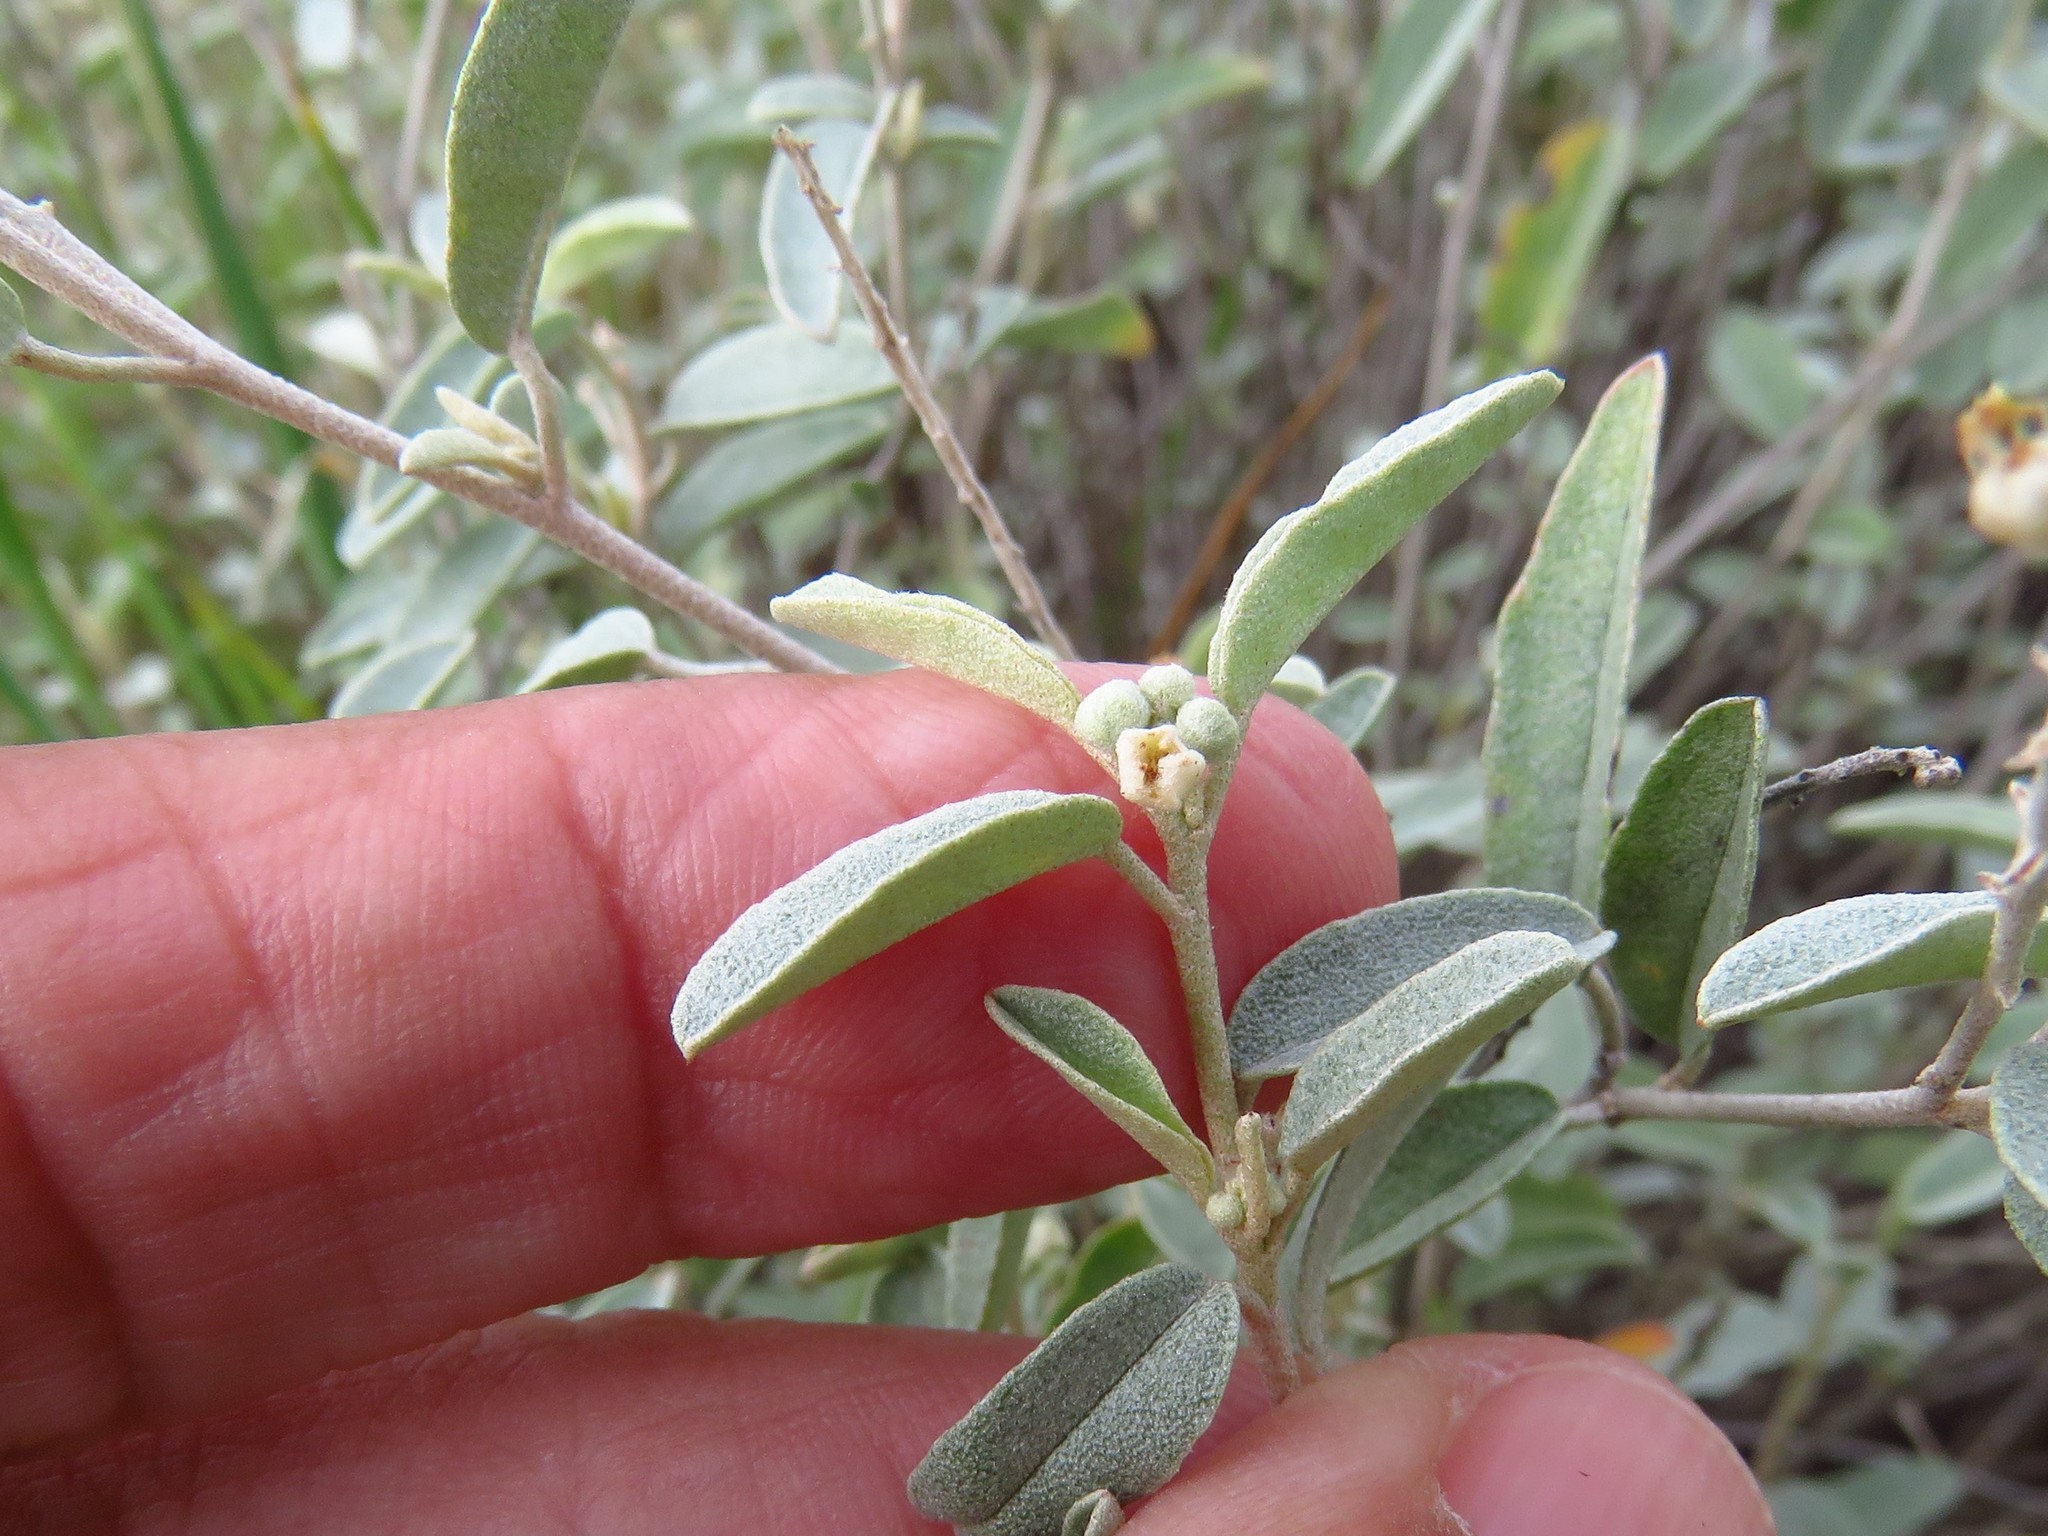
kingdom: Plantae
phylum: Tracheophyta
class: Magnoliopsida
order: Malpighiales
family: Euphorbiaceae
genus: Croton
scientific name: Croton dioicus
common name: Grassland croton
